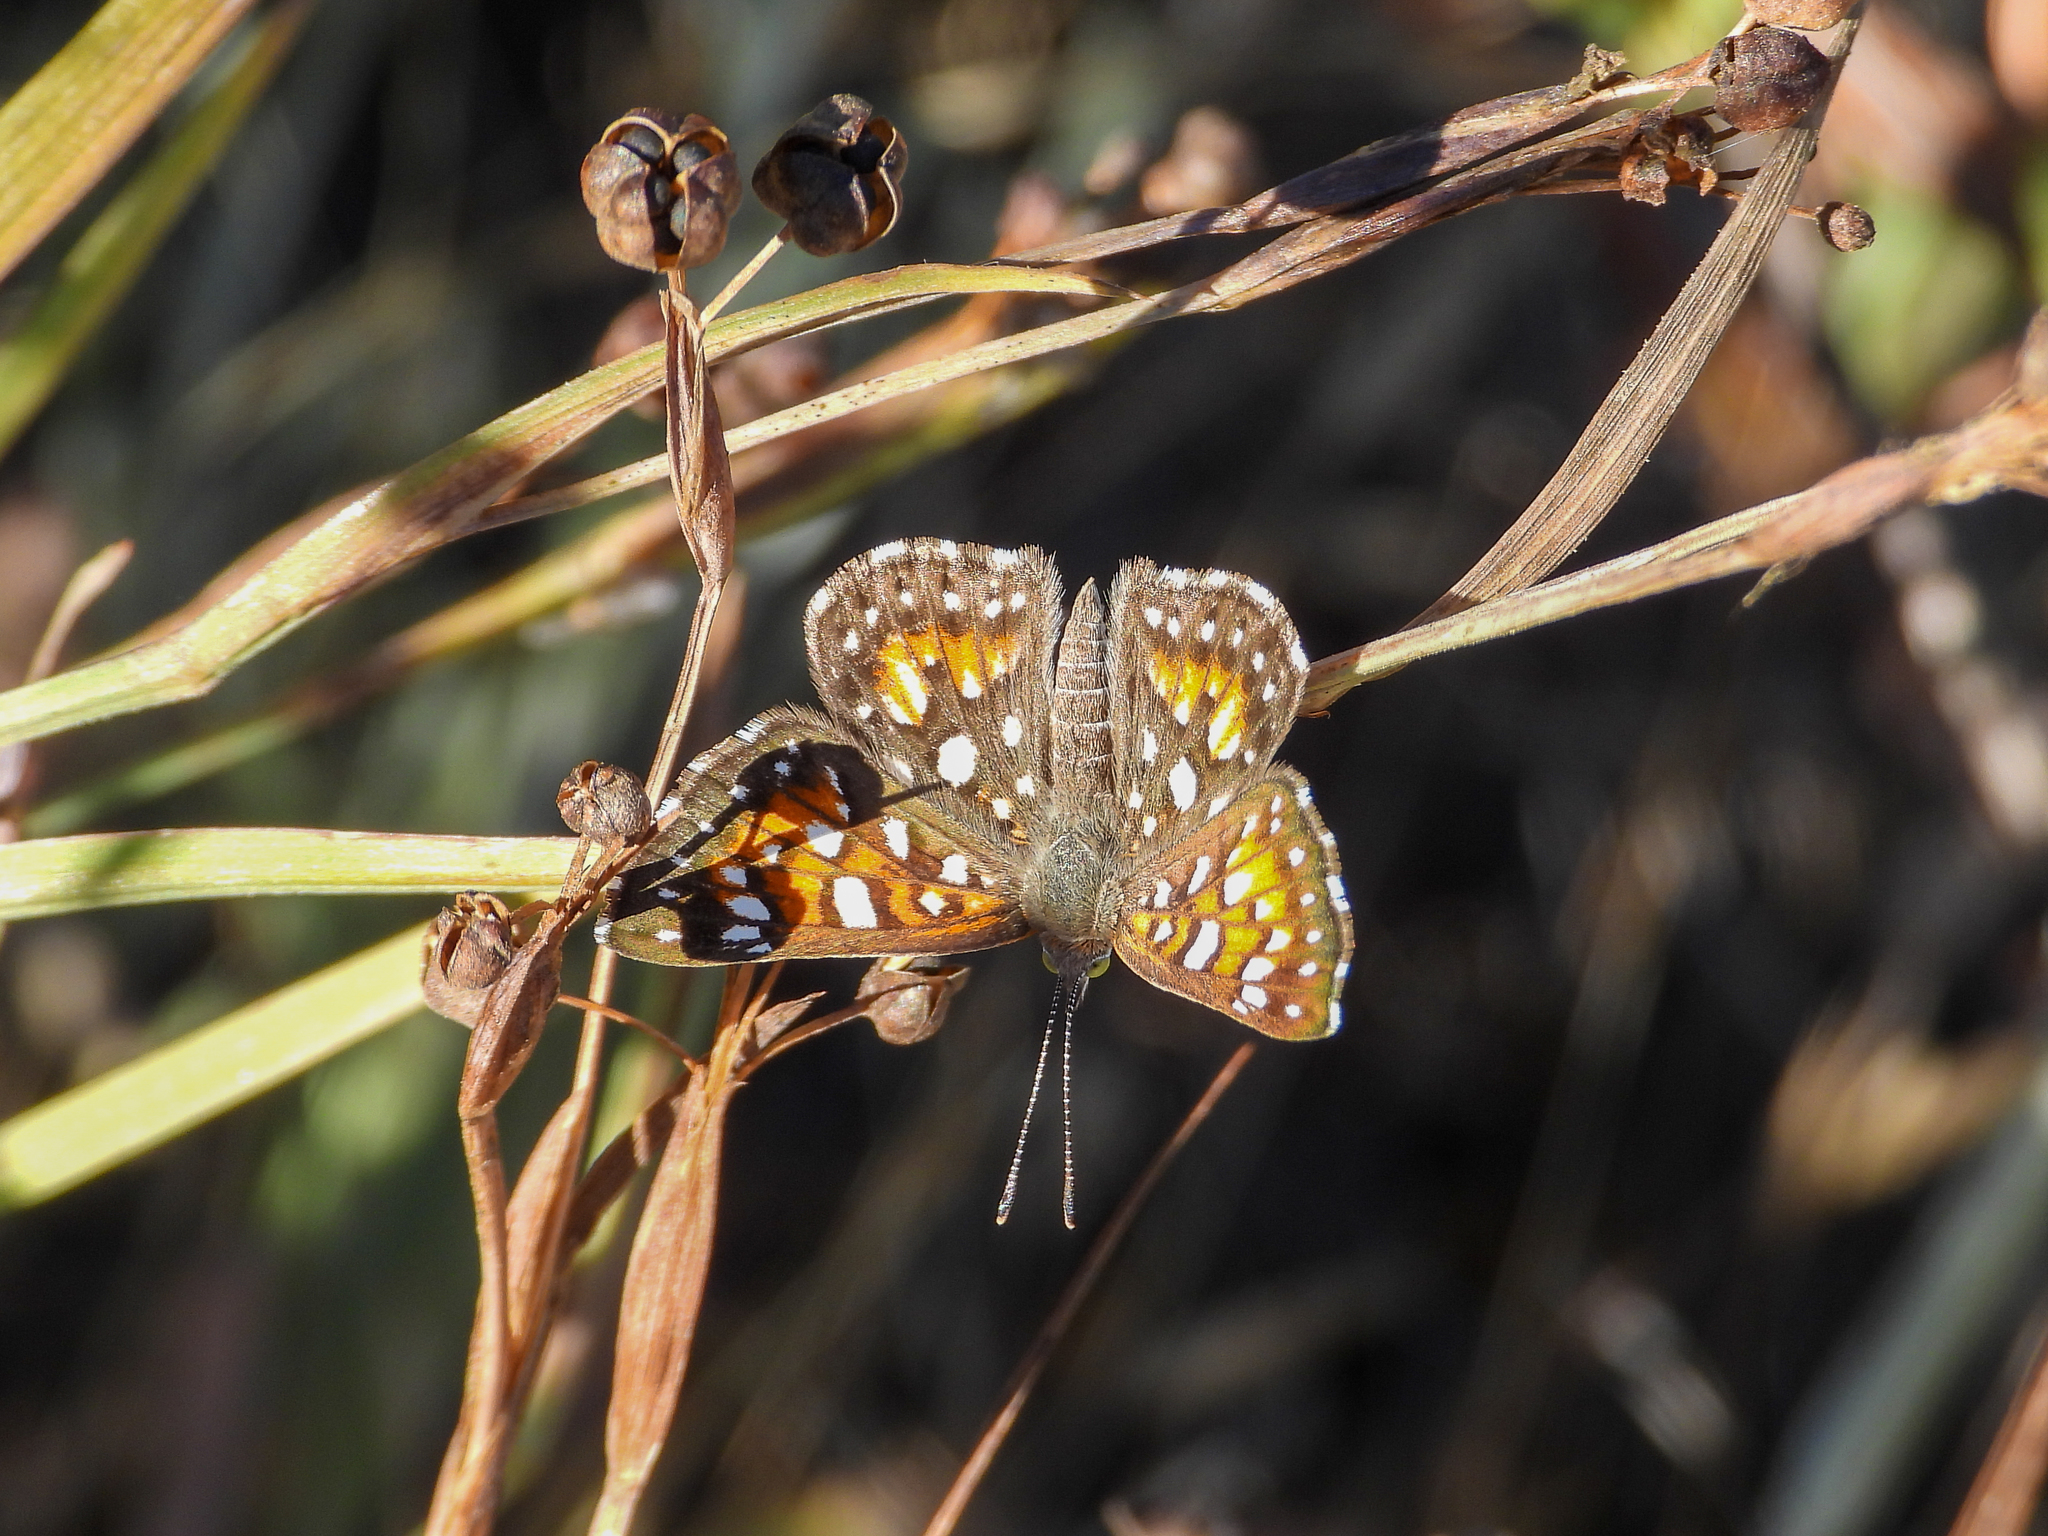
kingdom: Animalia
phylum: Arthropoda
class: Insecta
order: Lepidoptera
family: Riodinidae
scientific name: Riodinidae
